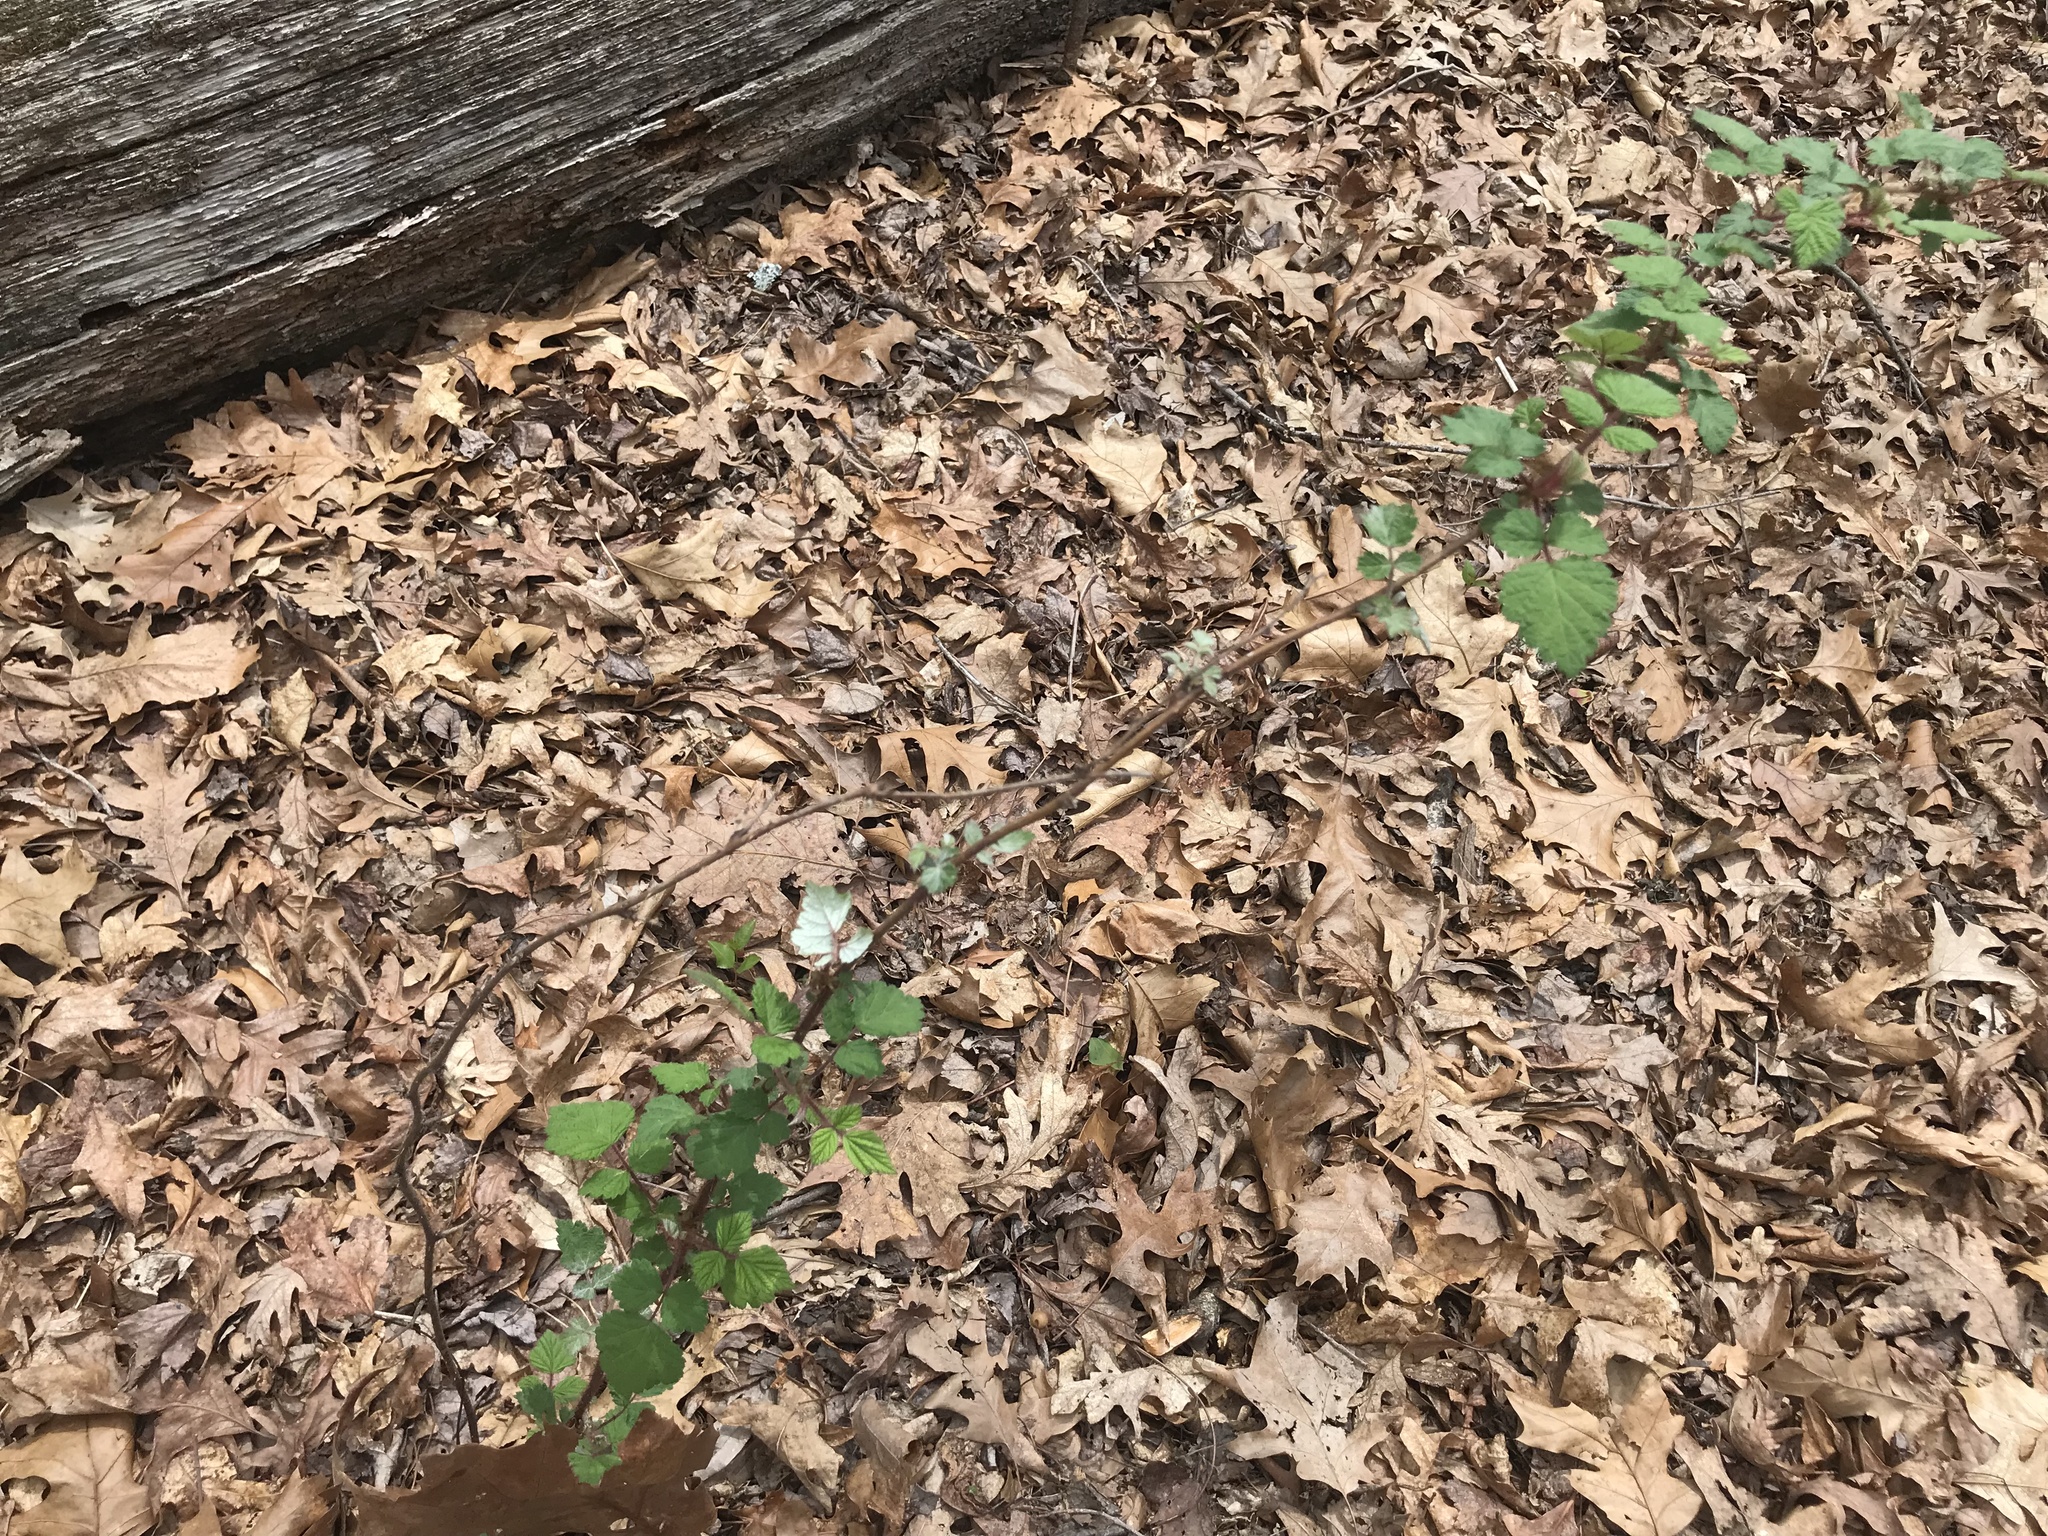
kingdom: Plantae
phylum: Tracheophyta
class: Magnoliopsida
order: Rosales
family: Rosaceae
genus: Rubus
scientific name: Rubus phoenicolasius
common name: Japanese wineberry
